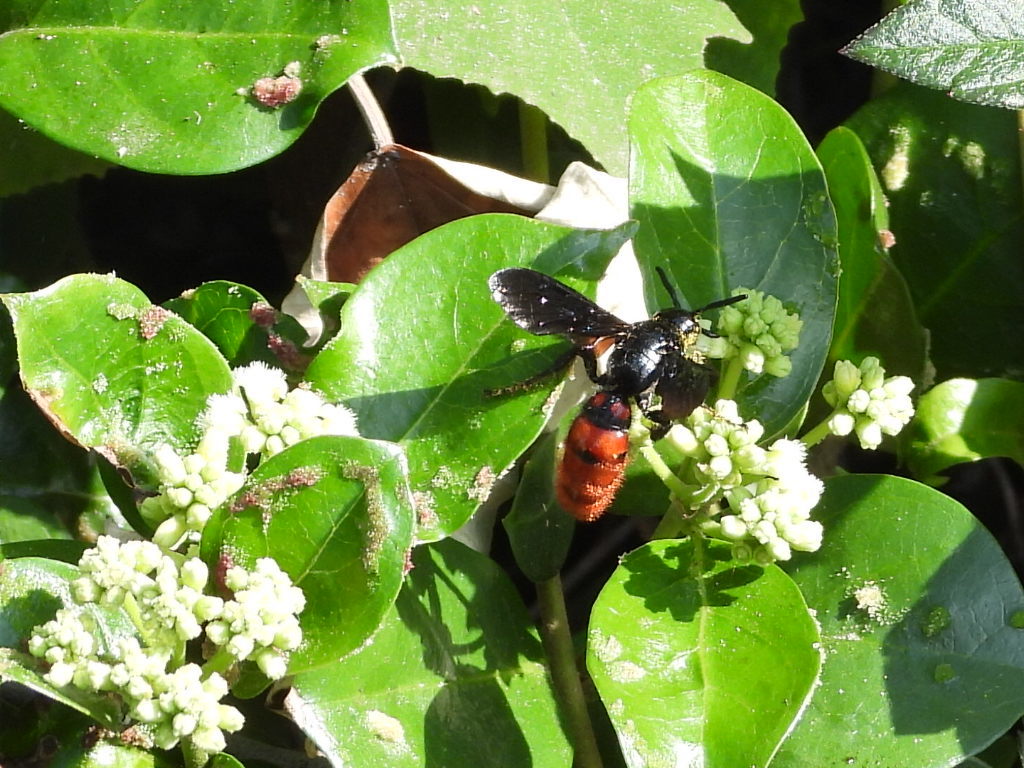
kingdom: Animalia
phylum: Arthropoda
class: Insecta
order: Hymenoptera
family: Scoliidae
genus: Liacos
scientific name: Liacos erythrosoma
